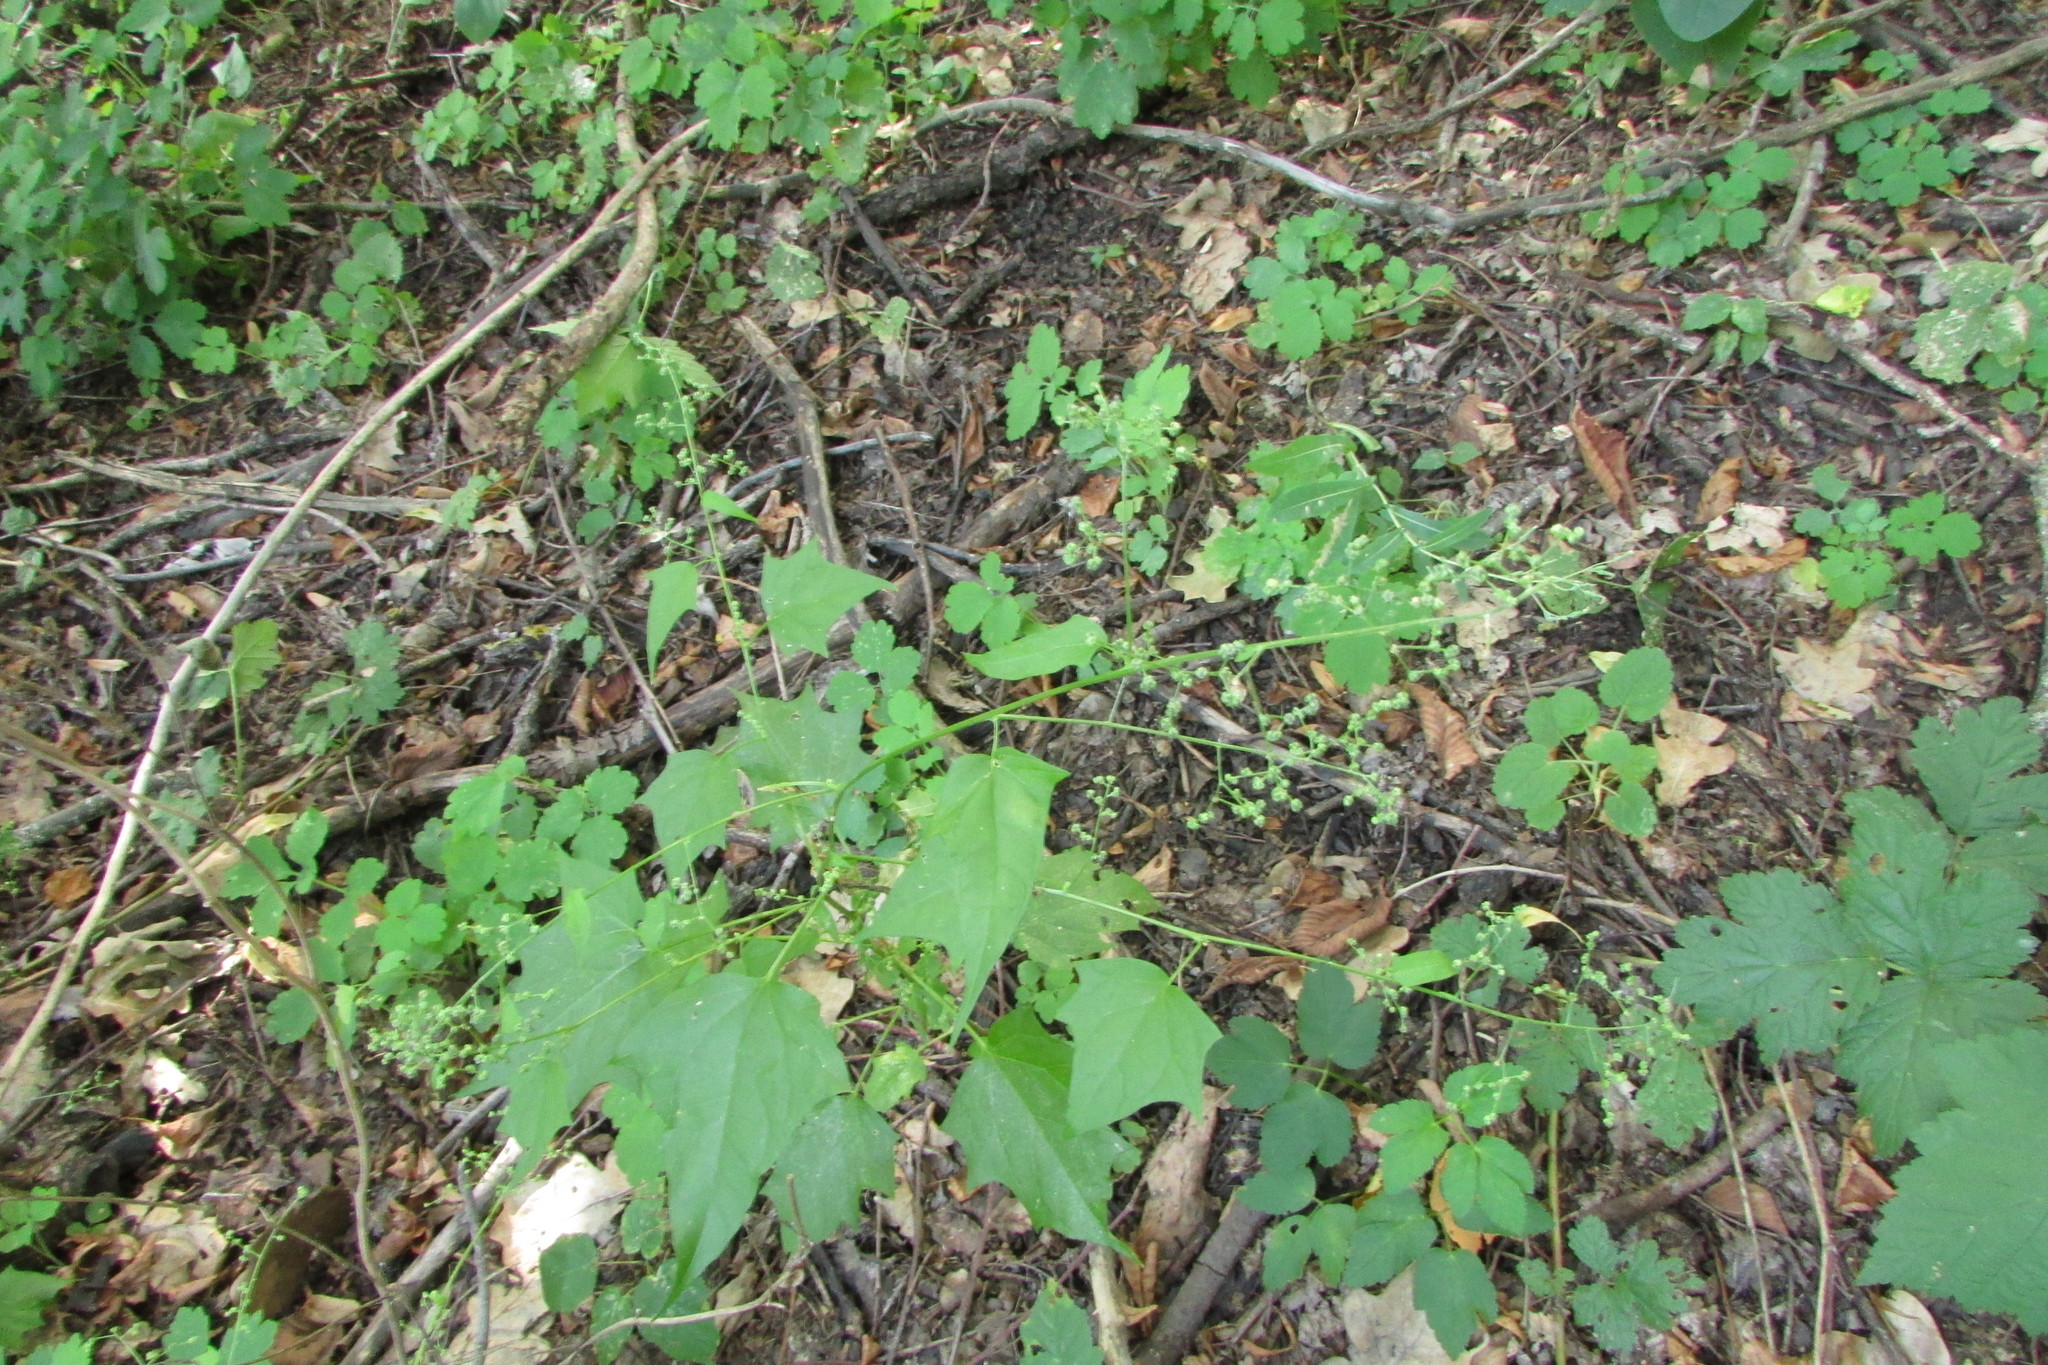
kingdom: Plantae
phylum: Tracheophyta
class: Magnoliopsida
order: Caryophyllales
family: Amaranthaceae
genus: Chenopodiastrum
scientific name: Chenopodiastrum hybridum
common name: Mapleleaf goosefoot
